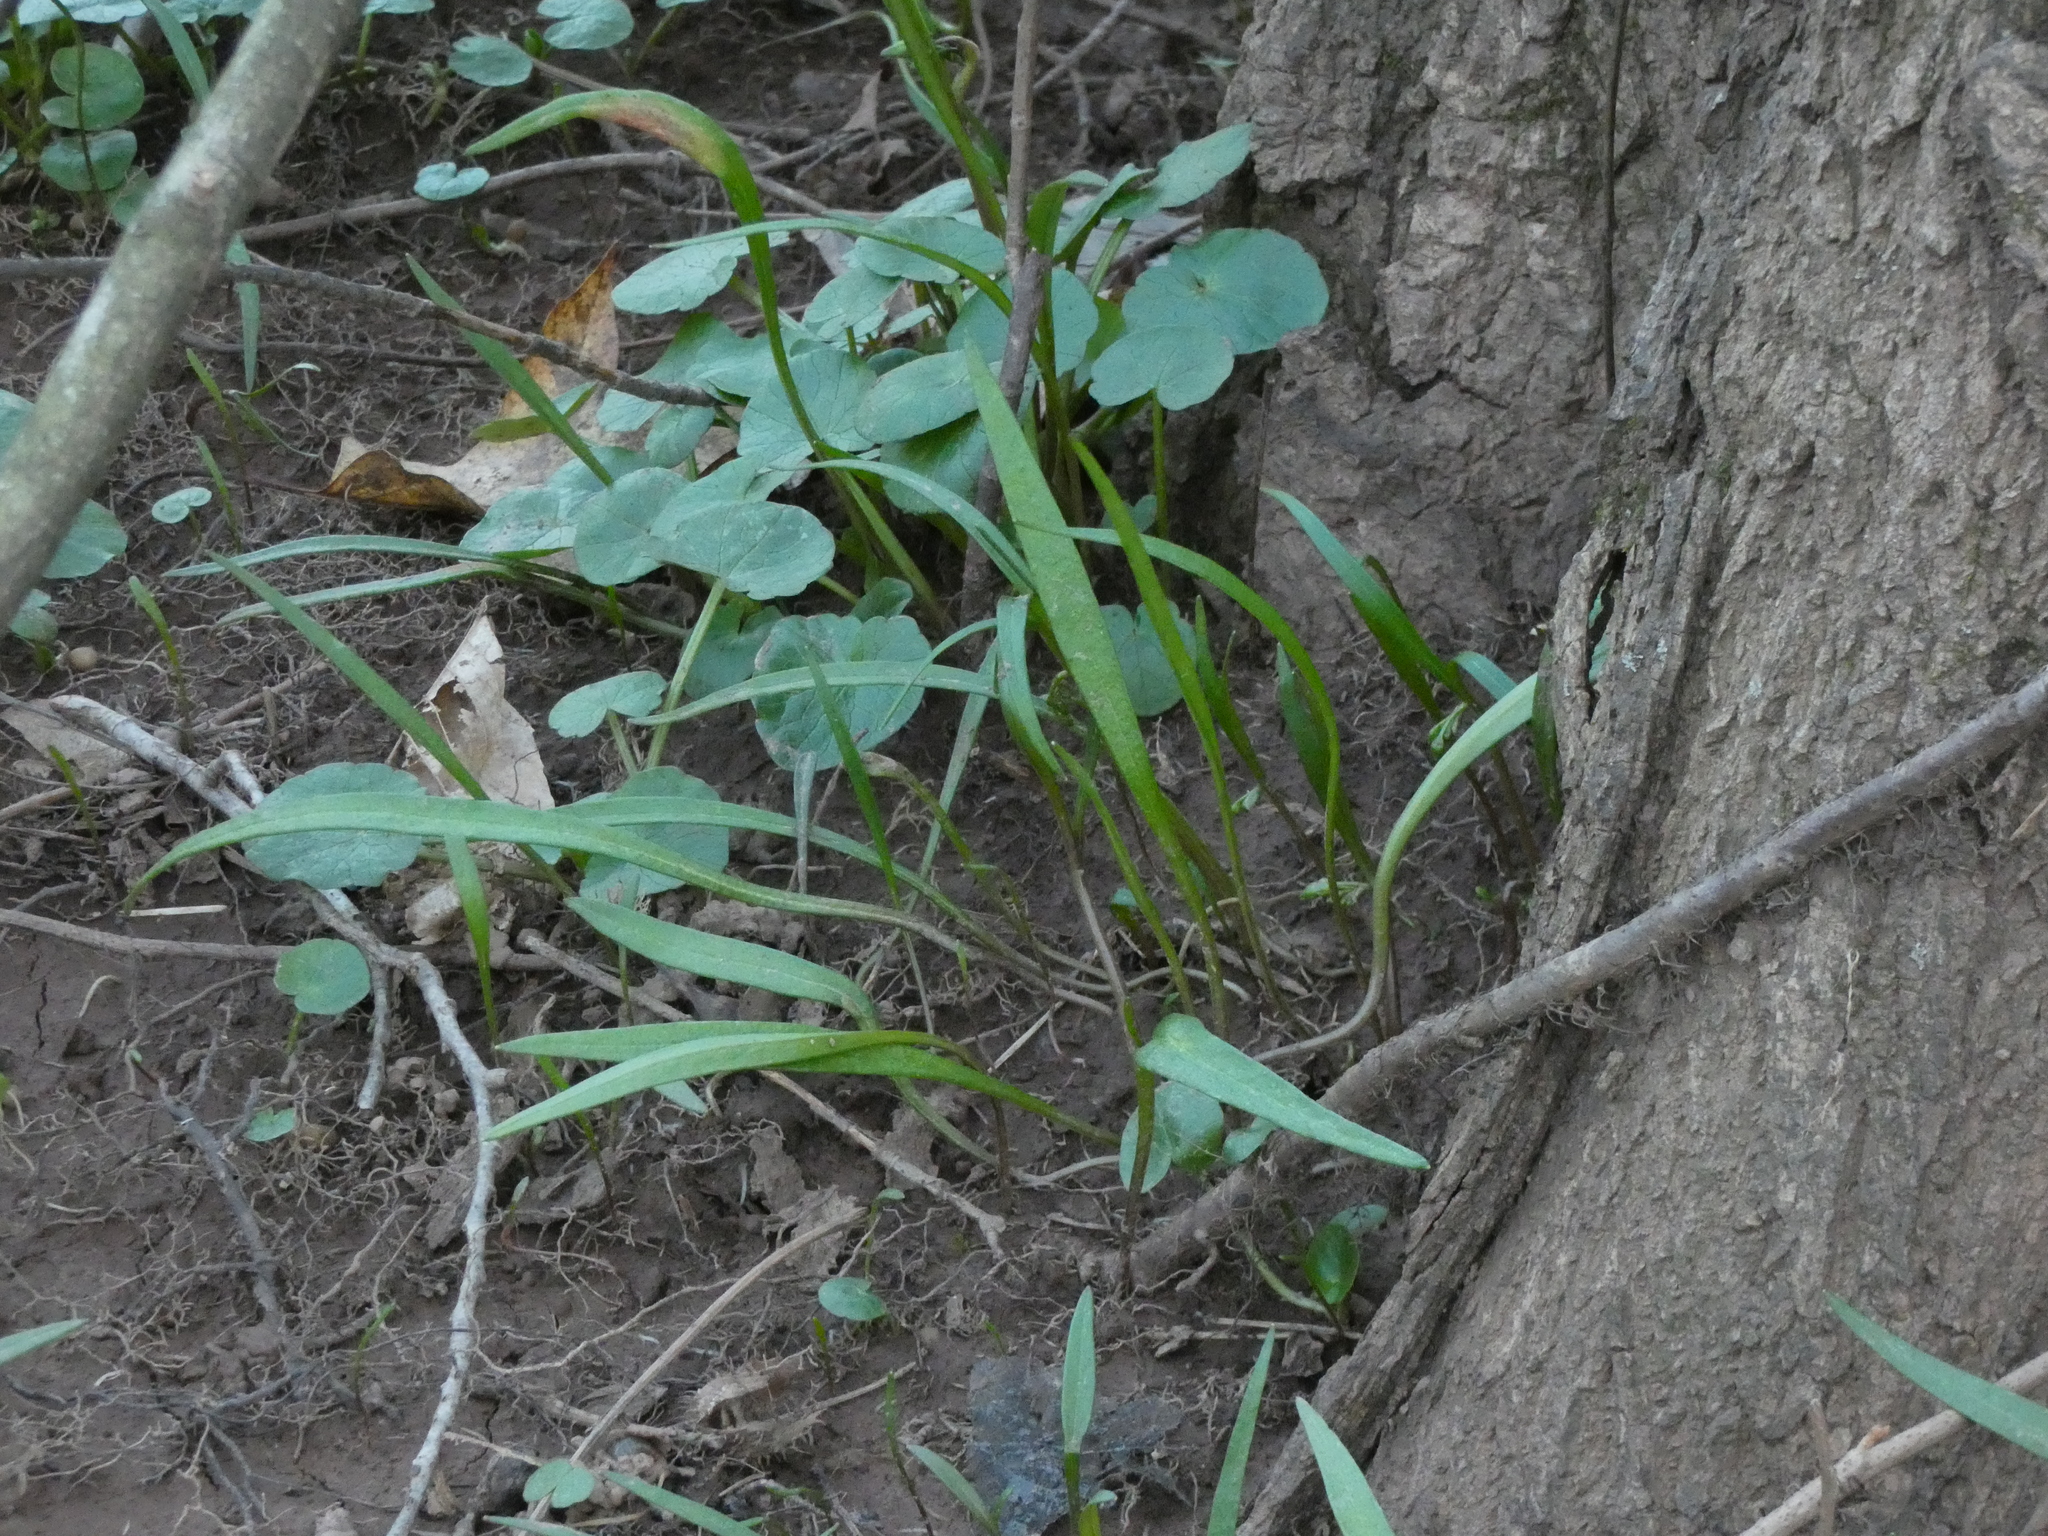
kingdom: Plantae
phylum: Tracheophyta
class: Magnoliopsida
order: Caryophyllales
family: Montiaceae
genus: Claytonia
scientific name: Claytonia virginica
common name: Virginia springbeauty
